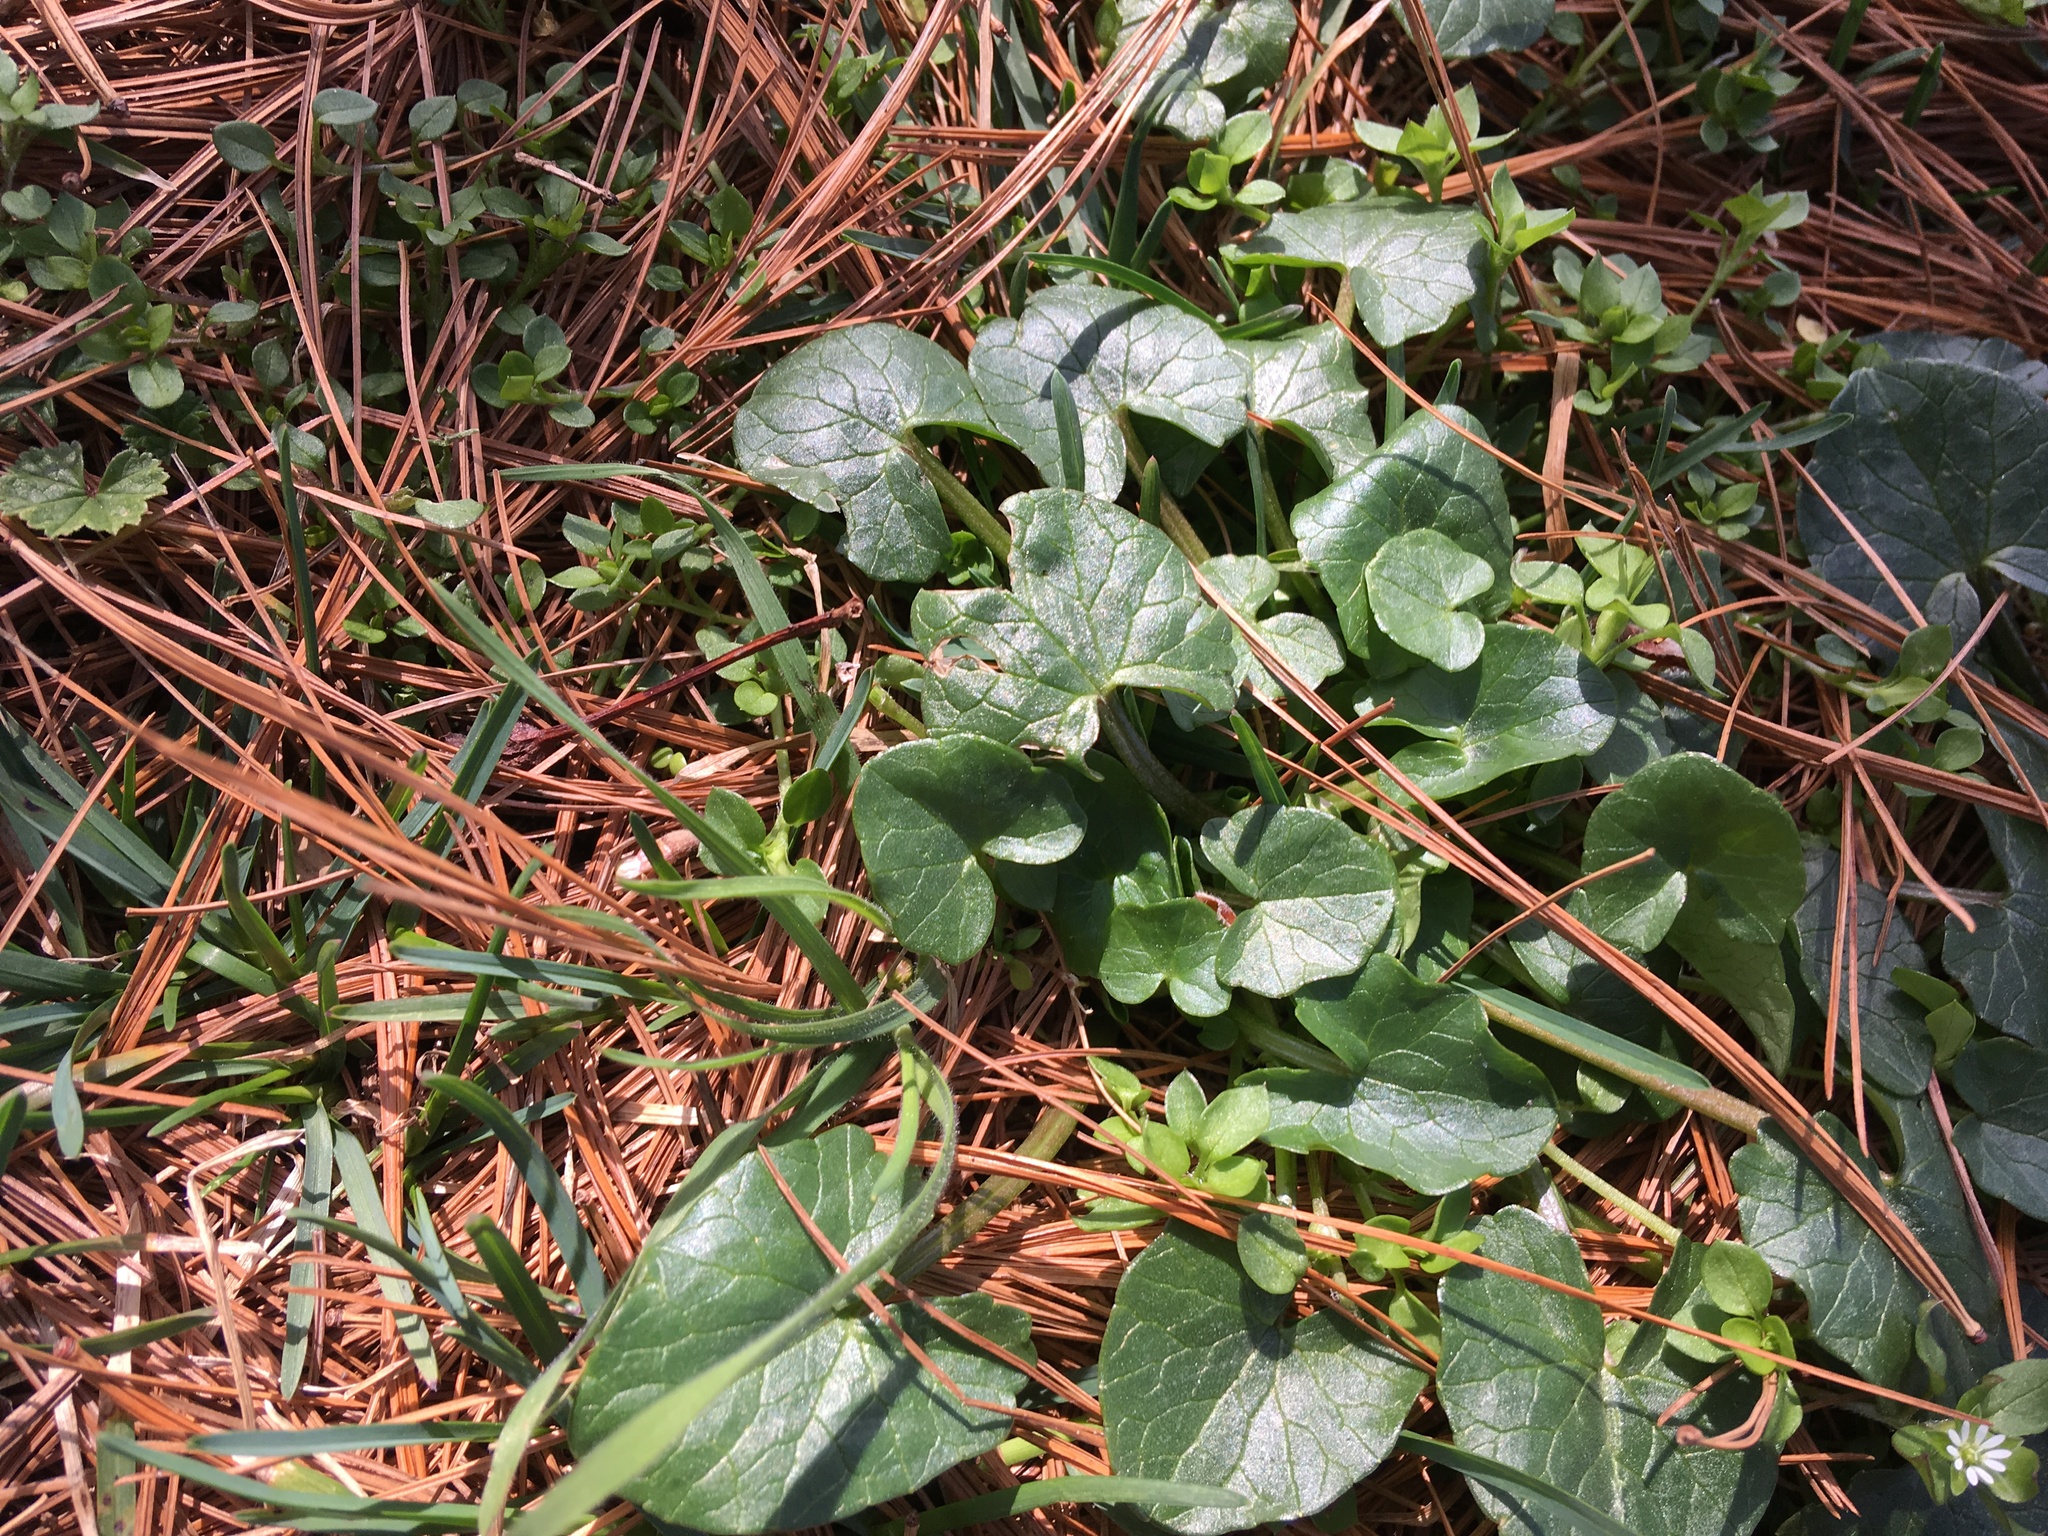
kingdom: Plantae
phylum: Tracheophyta
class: Magnoliopsida
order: Ranunculales
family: Ranunculaceae
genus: Ficaria
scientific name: Ficaria verna
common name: Lesser celandine
